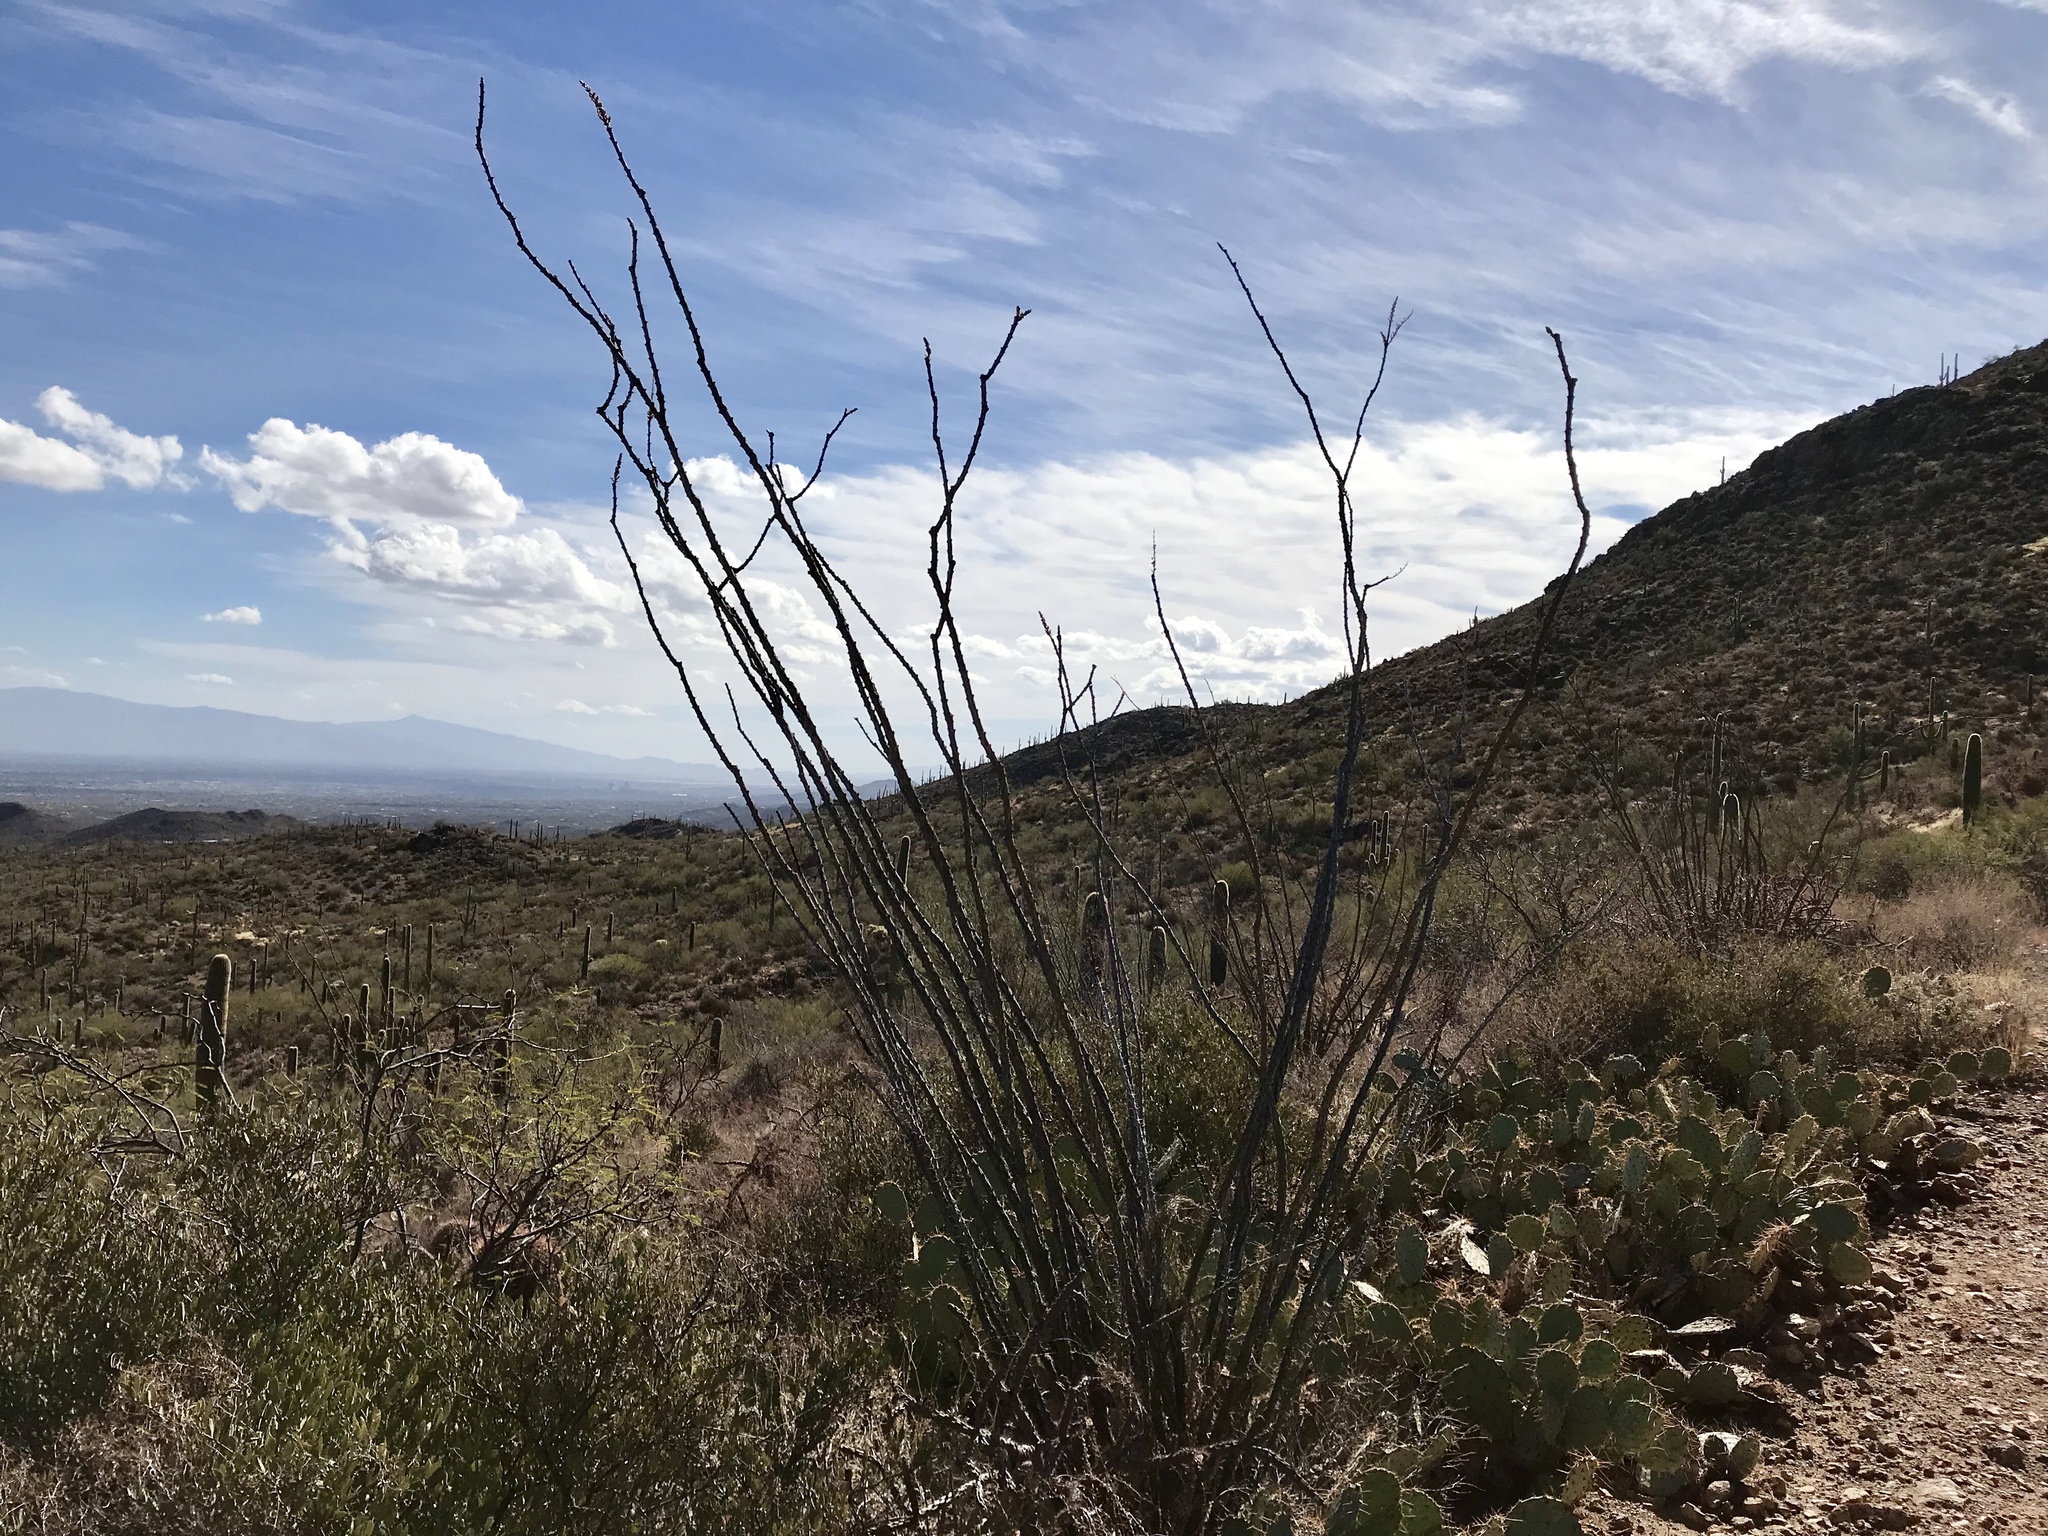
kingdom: Plantae
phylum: Tracheophyta
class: Magnoliopsida
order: Ericales
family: Fouquieriaceae
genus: Fouquieria
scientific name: Fouquieria splendens
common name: Vine-cactus
